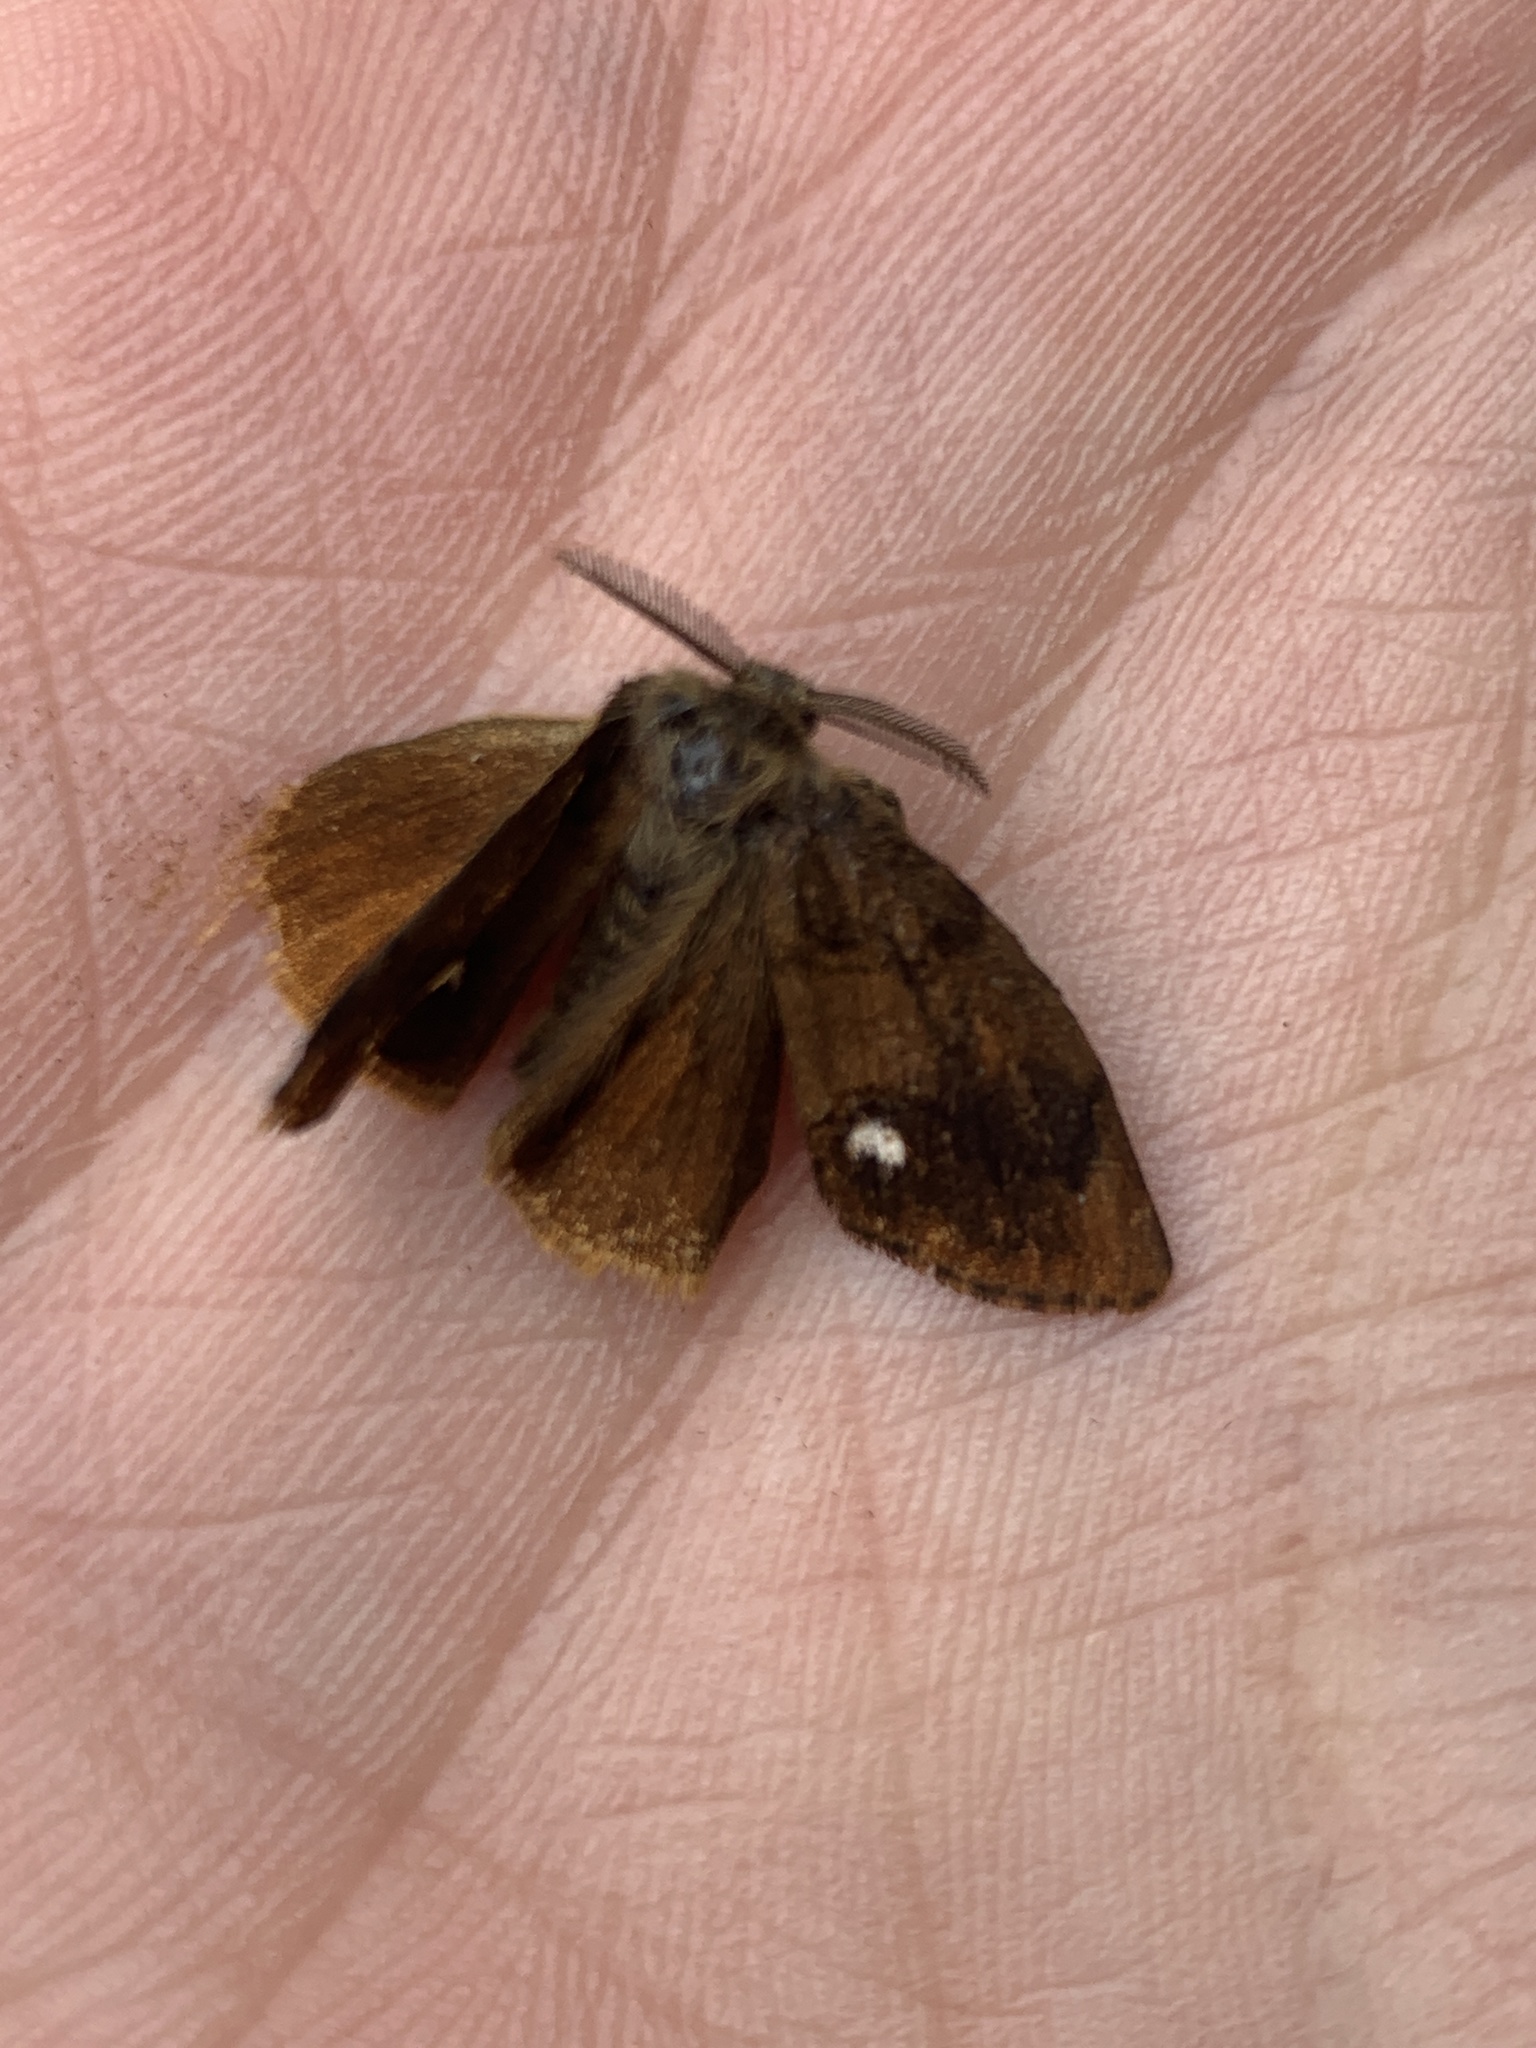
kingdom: Animalia
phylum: Arthropoda
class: Insecta
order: Lepidoptera
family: Erebidae
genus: Orgyia
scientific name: Orgyia antiqua
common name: Vapourer
